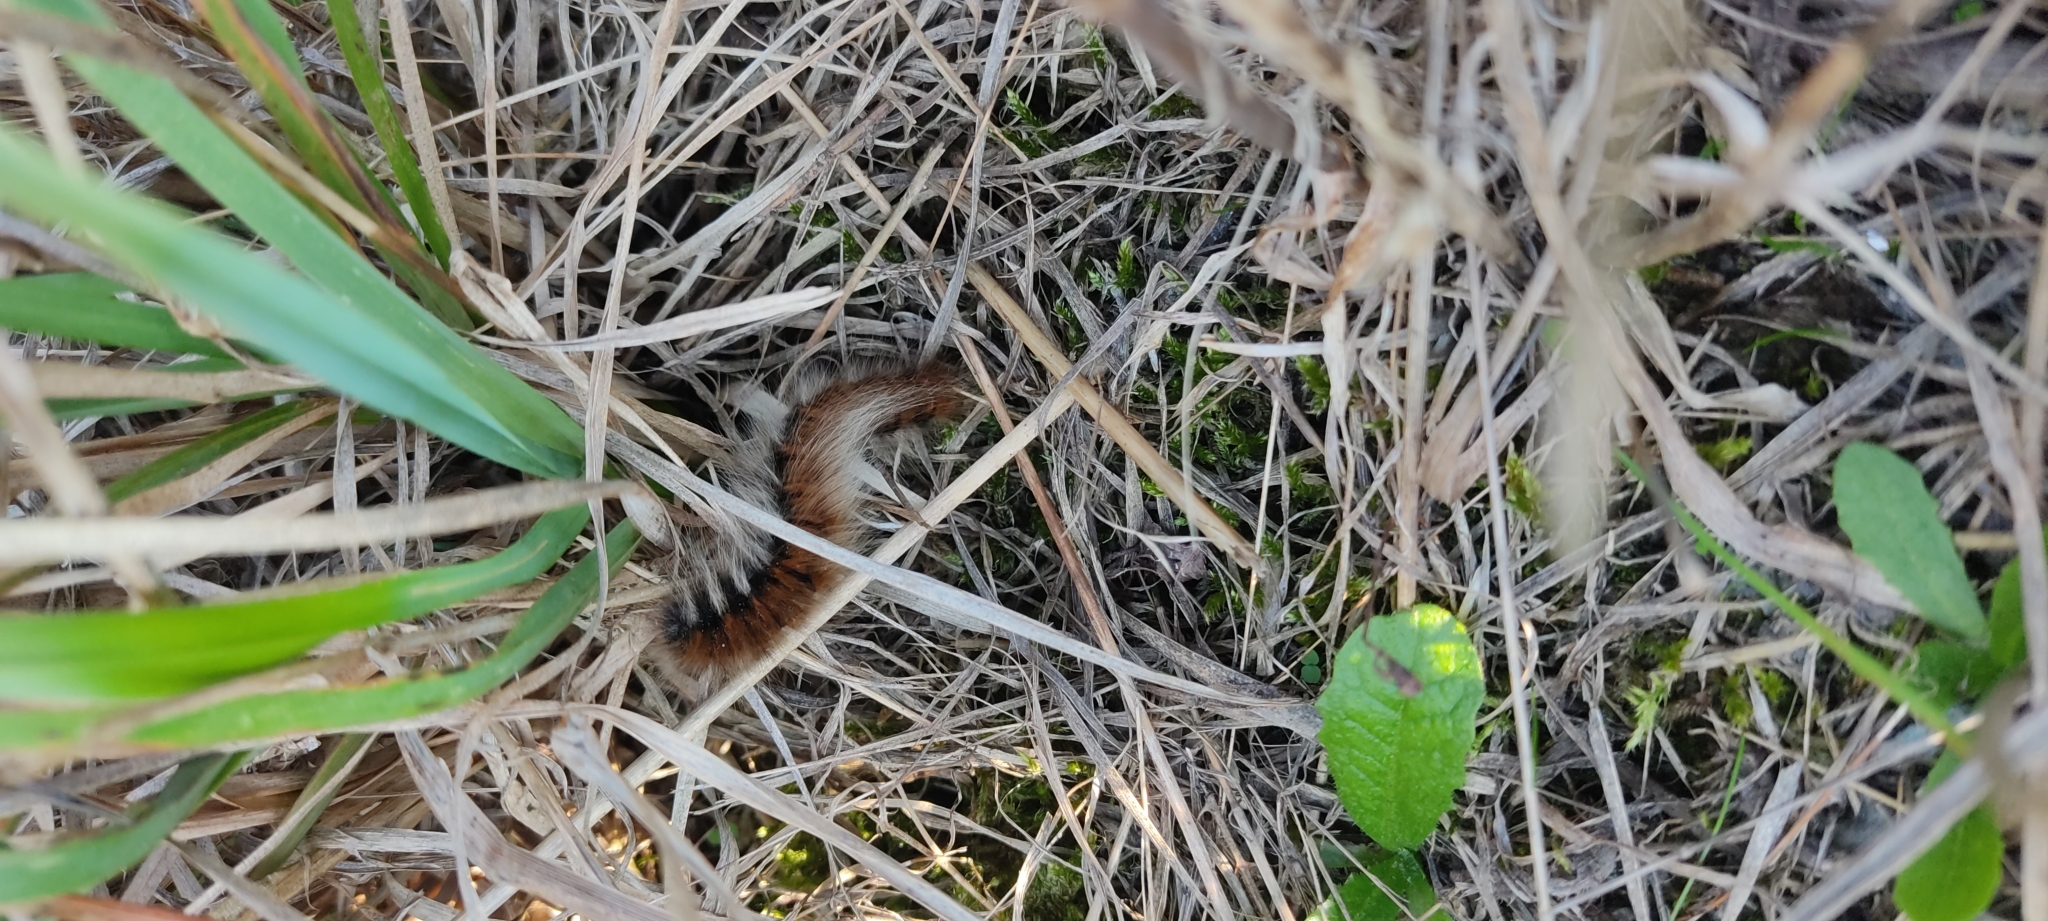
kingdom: Animalia
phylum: Arthropoda
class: Insecta
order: Lepidoptera
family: Lasiocampidae
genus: Macrothylacia
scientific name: Macrothylacia rubi
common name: Fox moth
